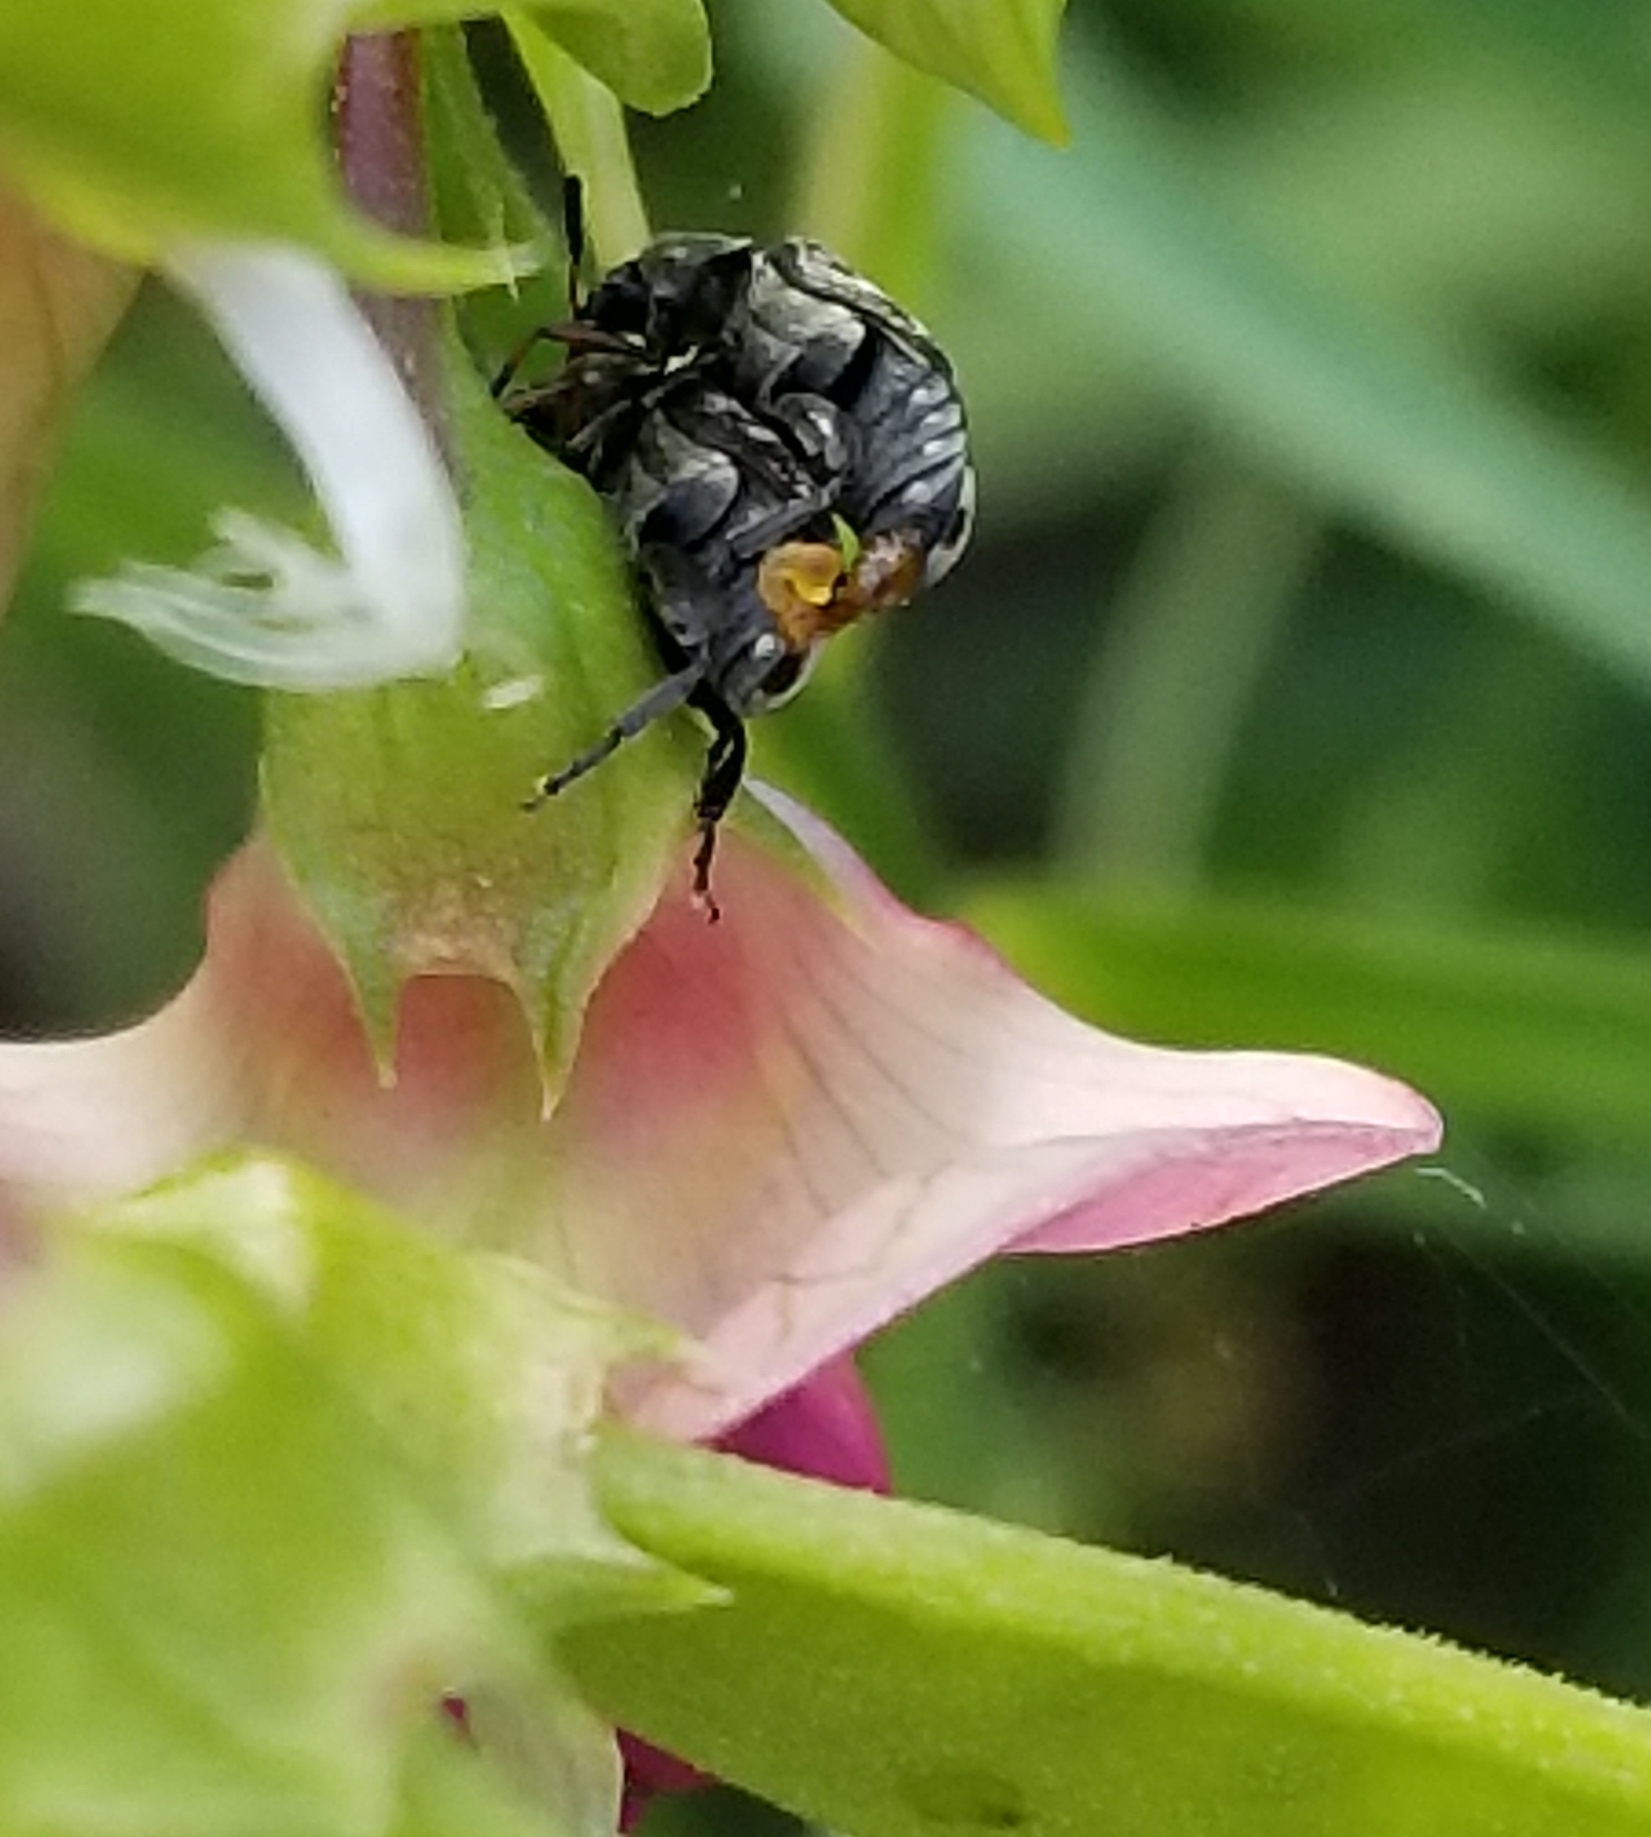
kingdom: Animalia
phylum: Arthropoda
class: Insecta
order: Coleoptera
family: Chrysomelidae
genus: Bruchus
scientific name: Bruchus affinis
